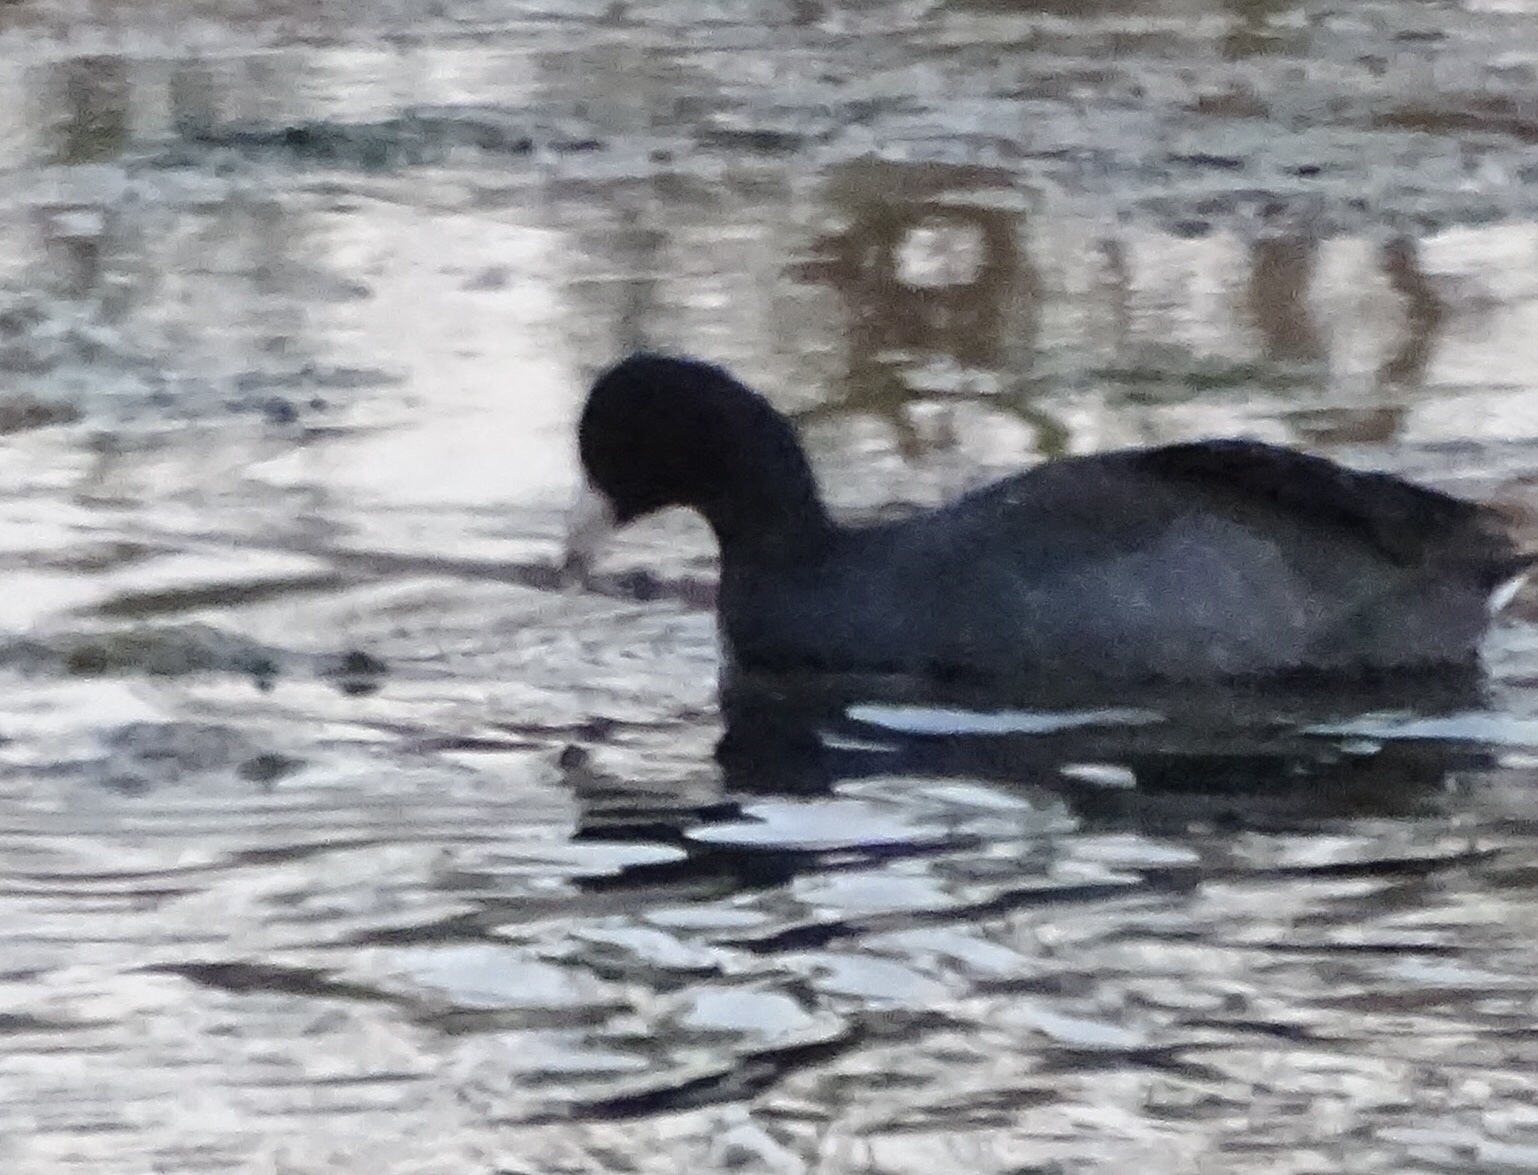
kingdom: Animalia
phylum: Chordata
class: Aves
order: Gruiformes
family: Rallidae
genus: Fulica
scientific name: Fulica americana
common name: American coot
